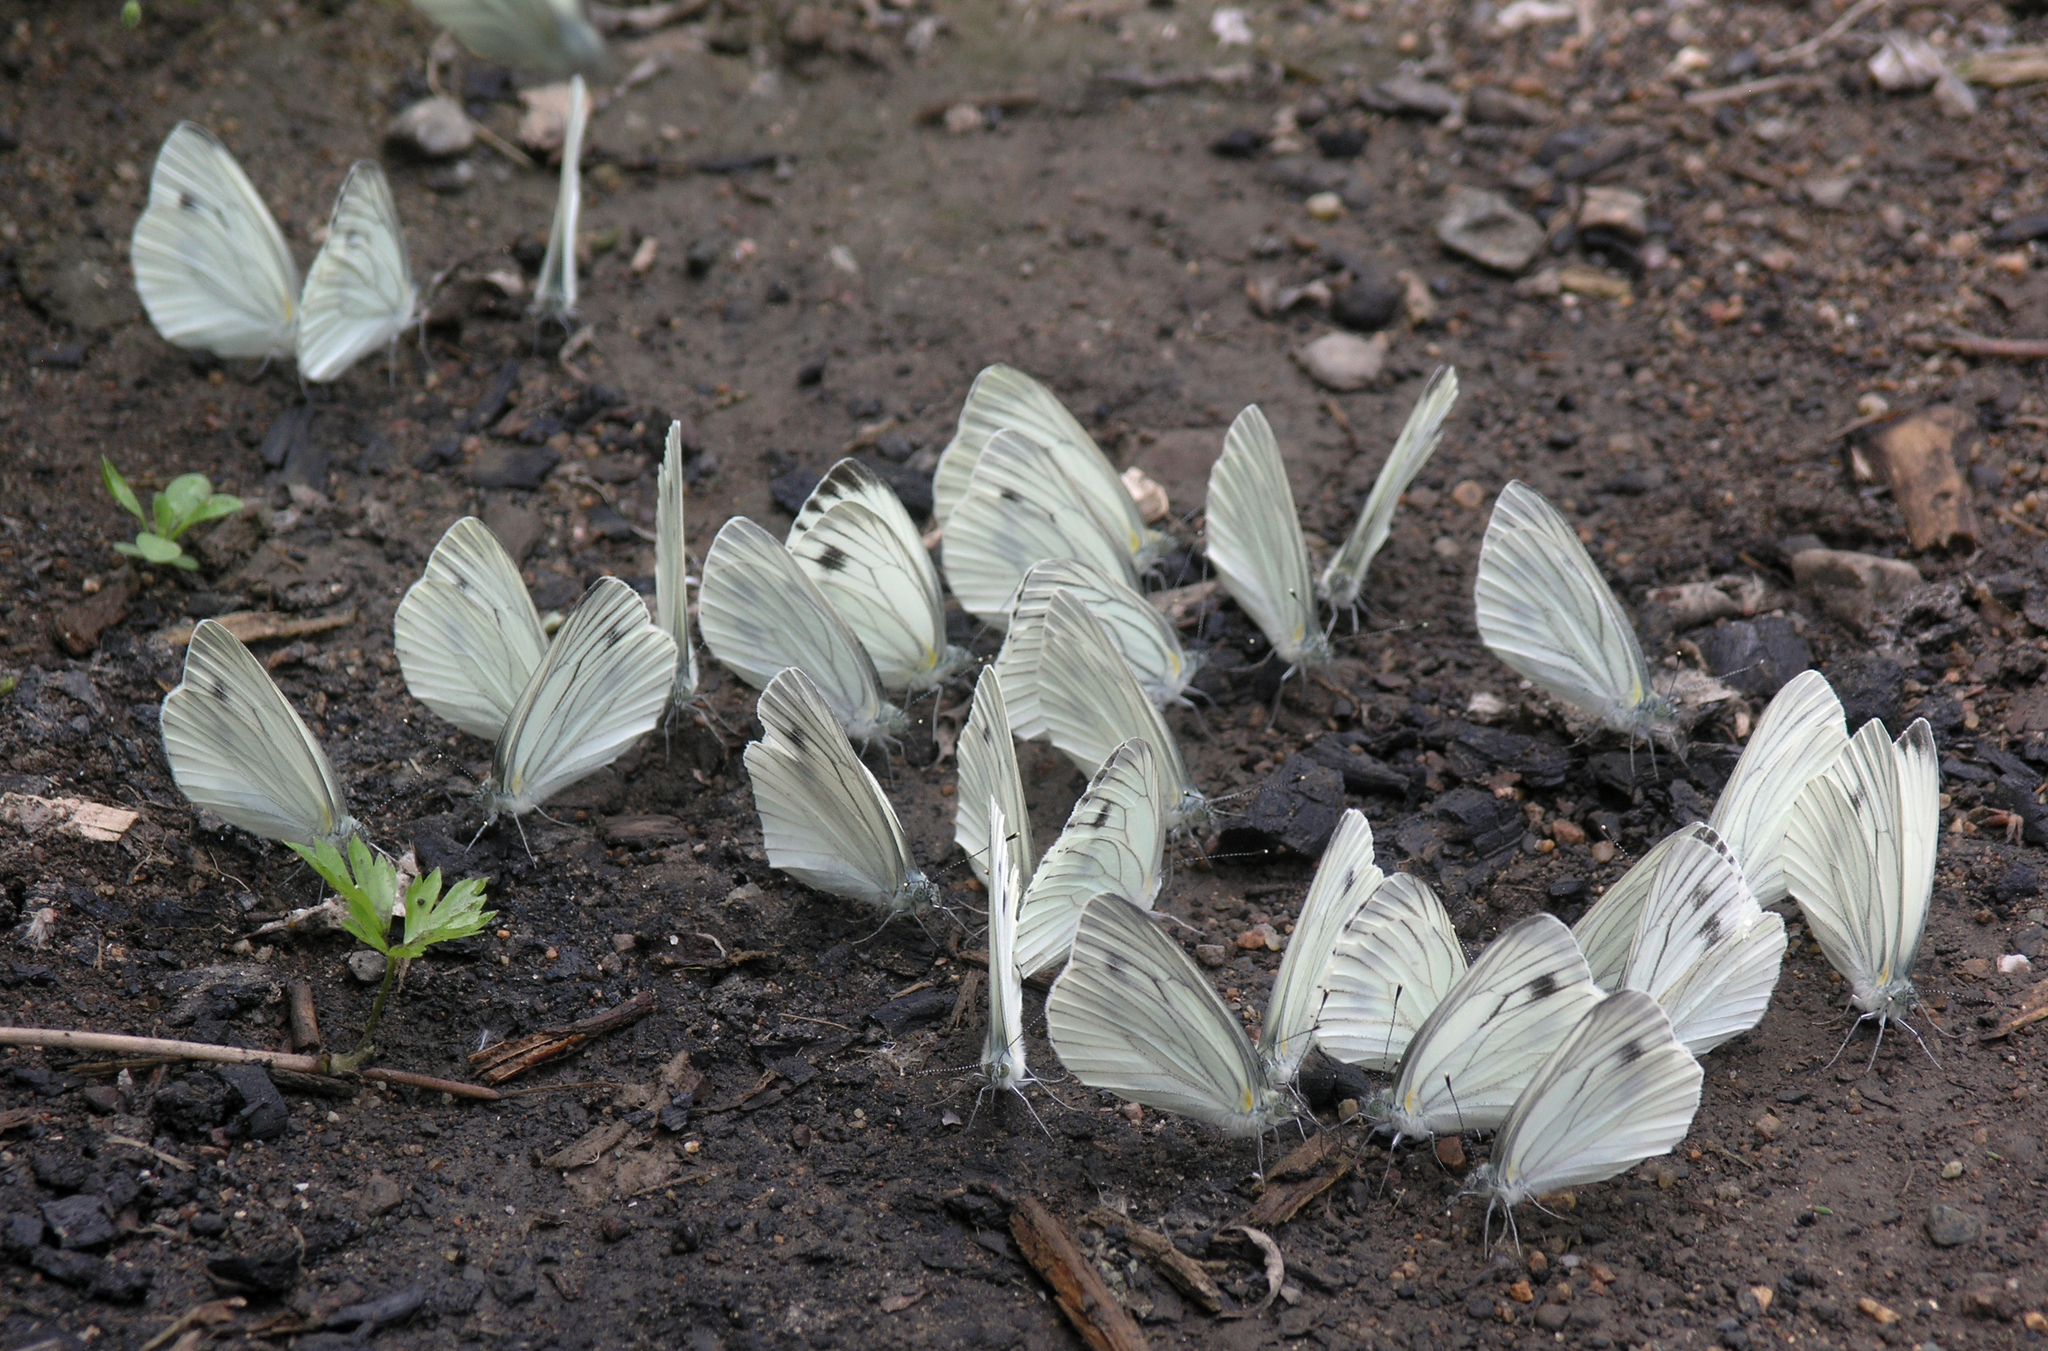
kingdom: Animalia
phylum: Arthropoda
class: Insecta
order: Lepidoptera
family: Pieridae
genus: Pieris
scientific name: Pieris dulcinea
